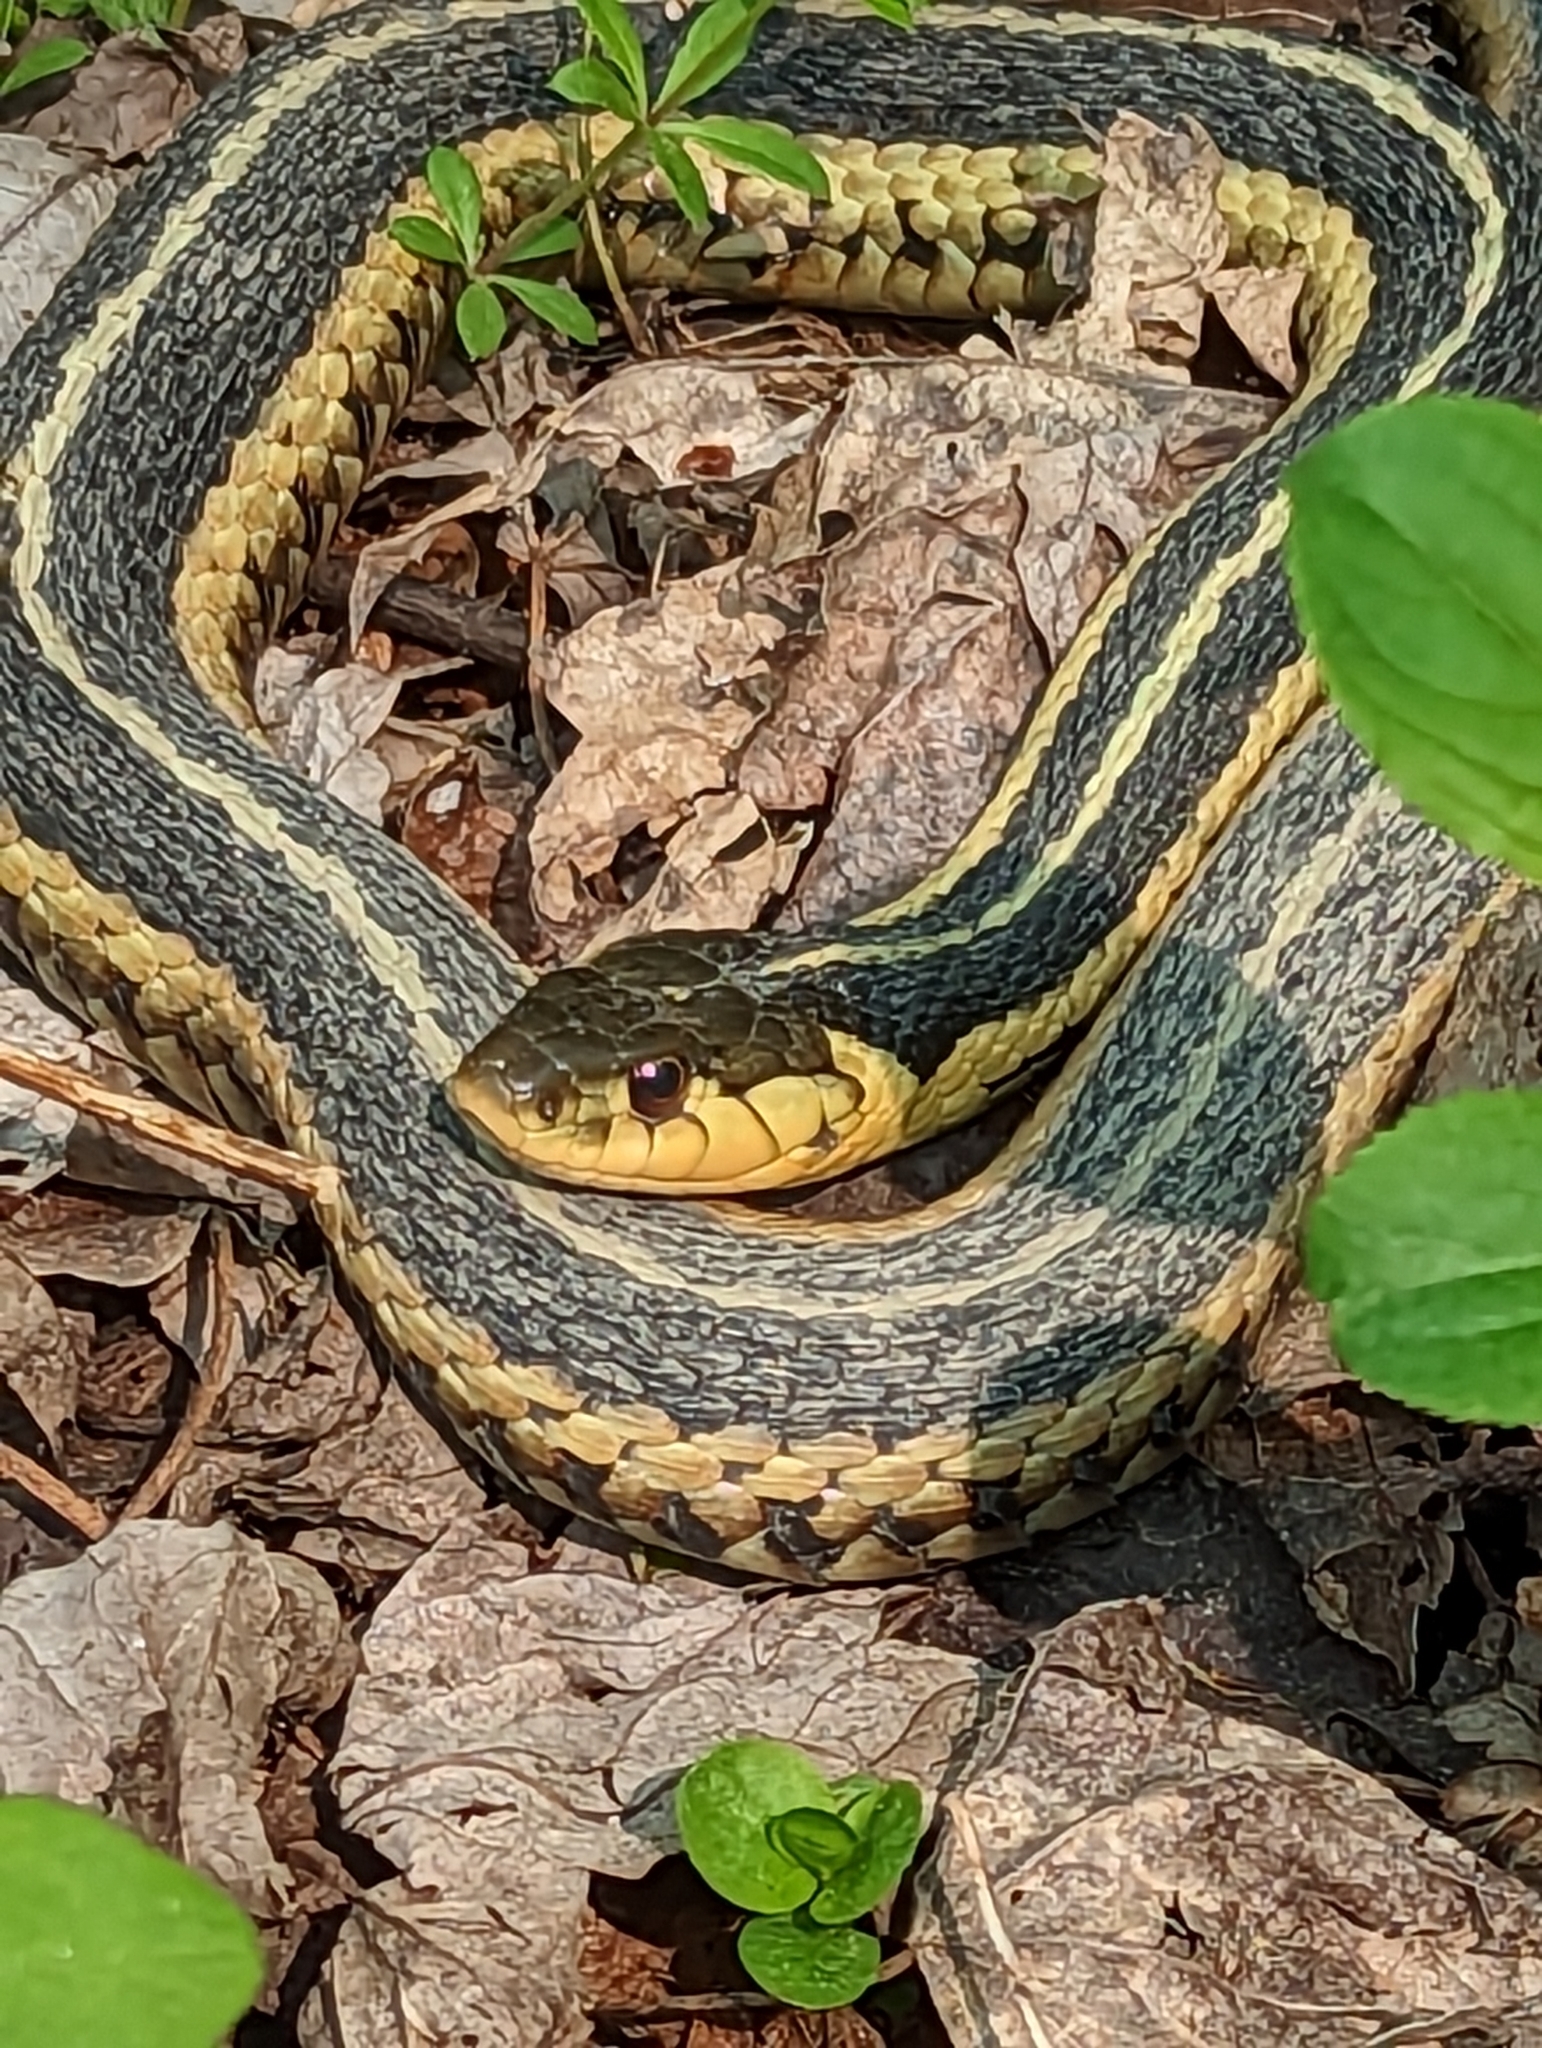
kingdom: Animalia
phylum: Chordata
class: Squamata
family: Colubridae
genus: Thamnophis
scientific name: Thamnophis sirtalis
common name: Common garter snake
